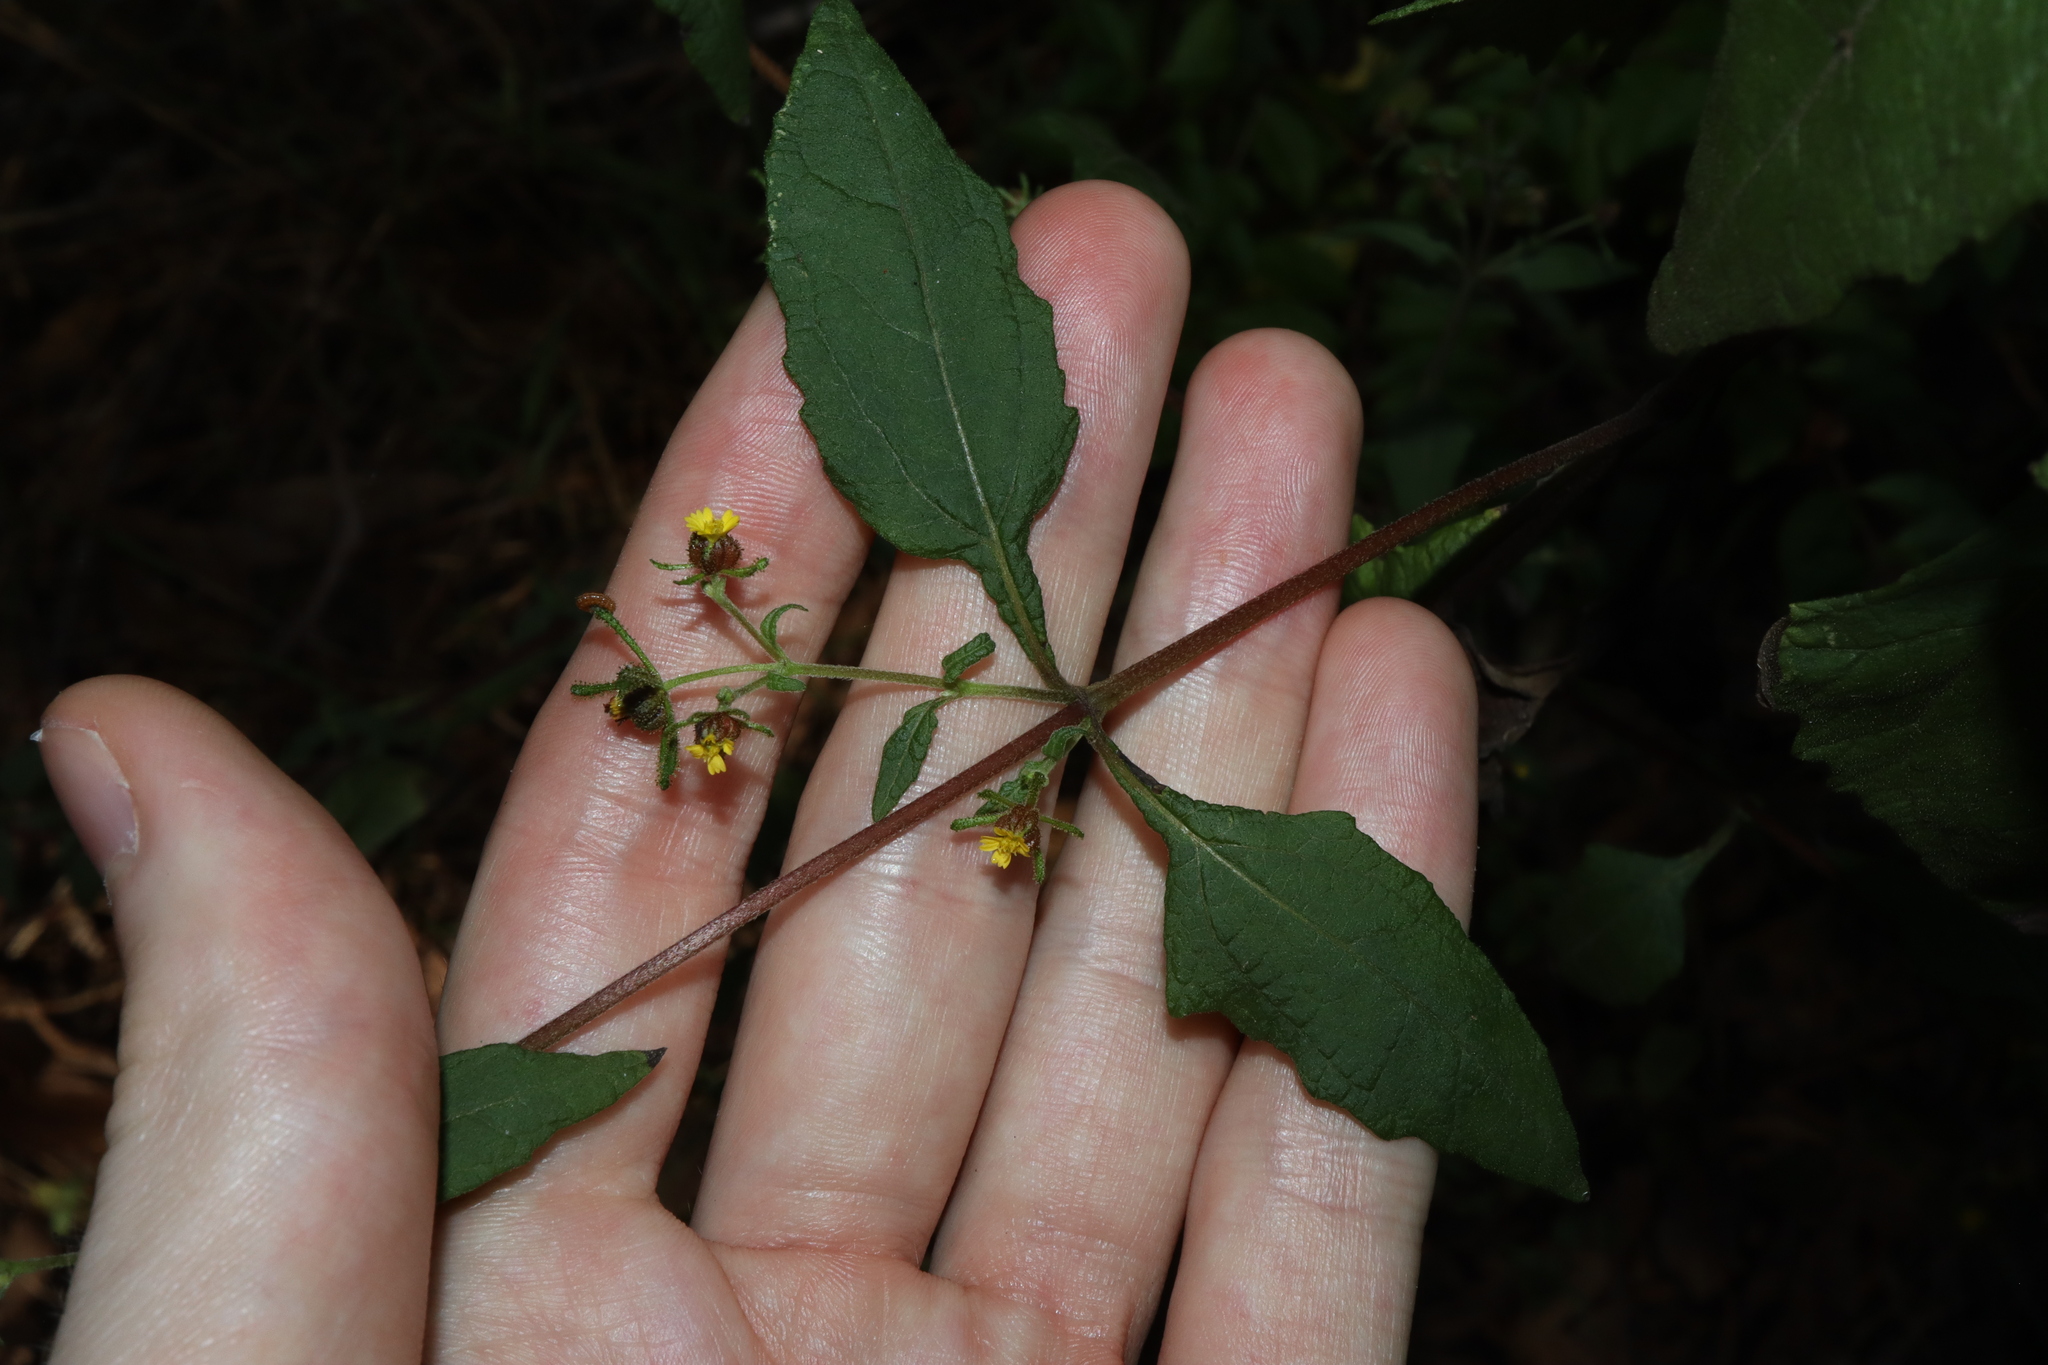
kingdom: Plantae
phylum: Tracheophyta
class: Magnoliopsida
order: Asterales
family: Asteraceae
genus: Sigesbeckia
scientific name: Sigesbeckia orientalis
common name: Eastern st paul's-wort
